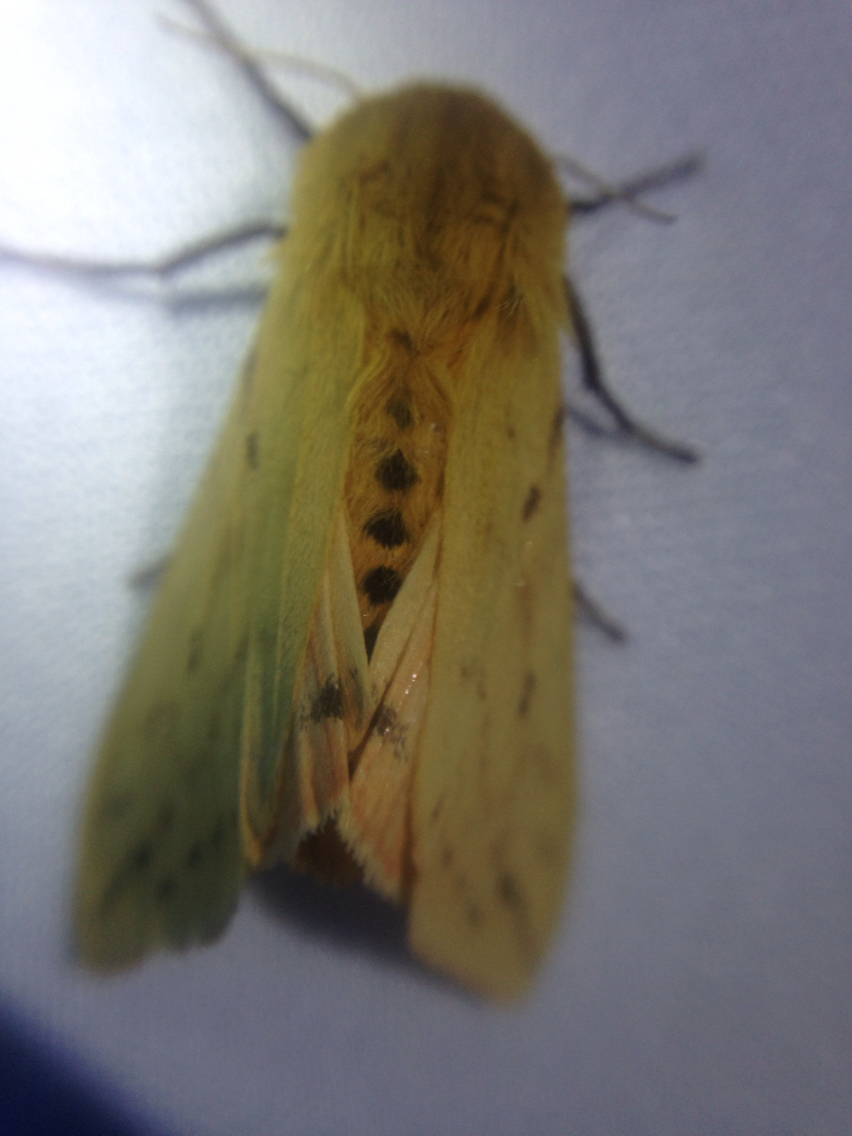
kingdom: Animalia
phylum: Arthropoda
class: Insecta
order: Lepidoptera
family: Erebidae
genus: Pyrrharctia
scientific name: Pyrrharctia isabella
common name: Isabella tiger moth
